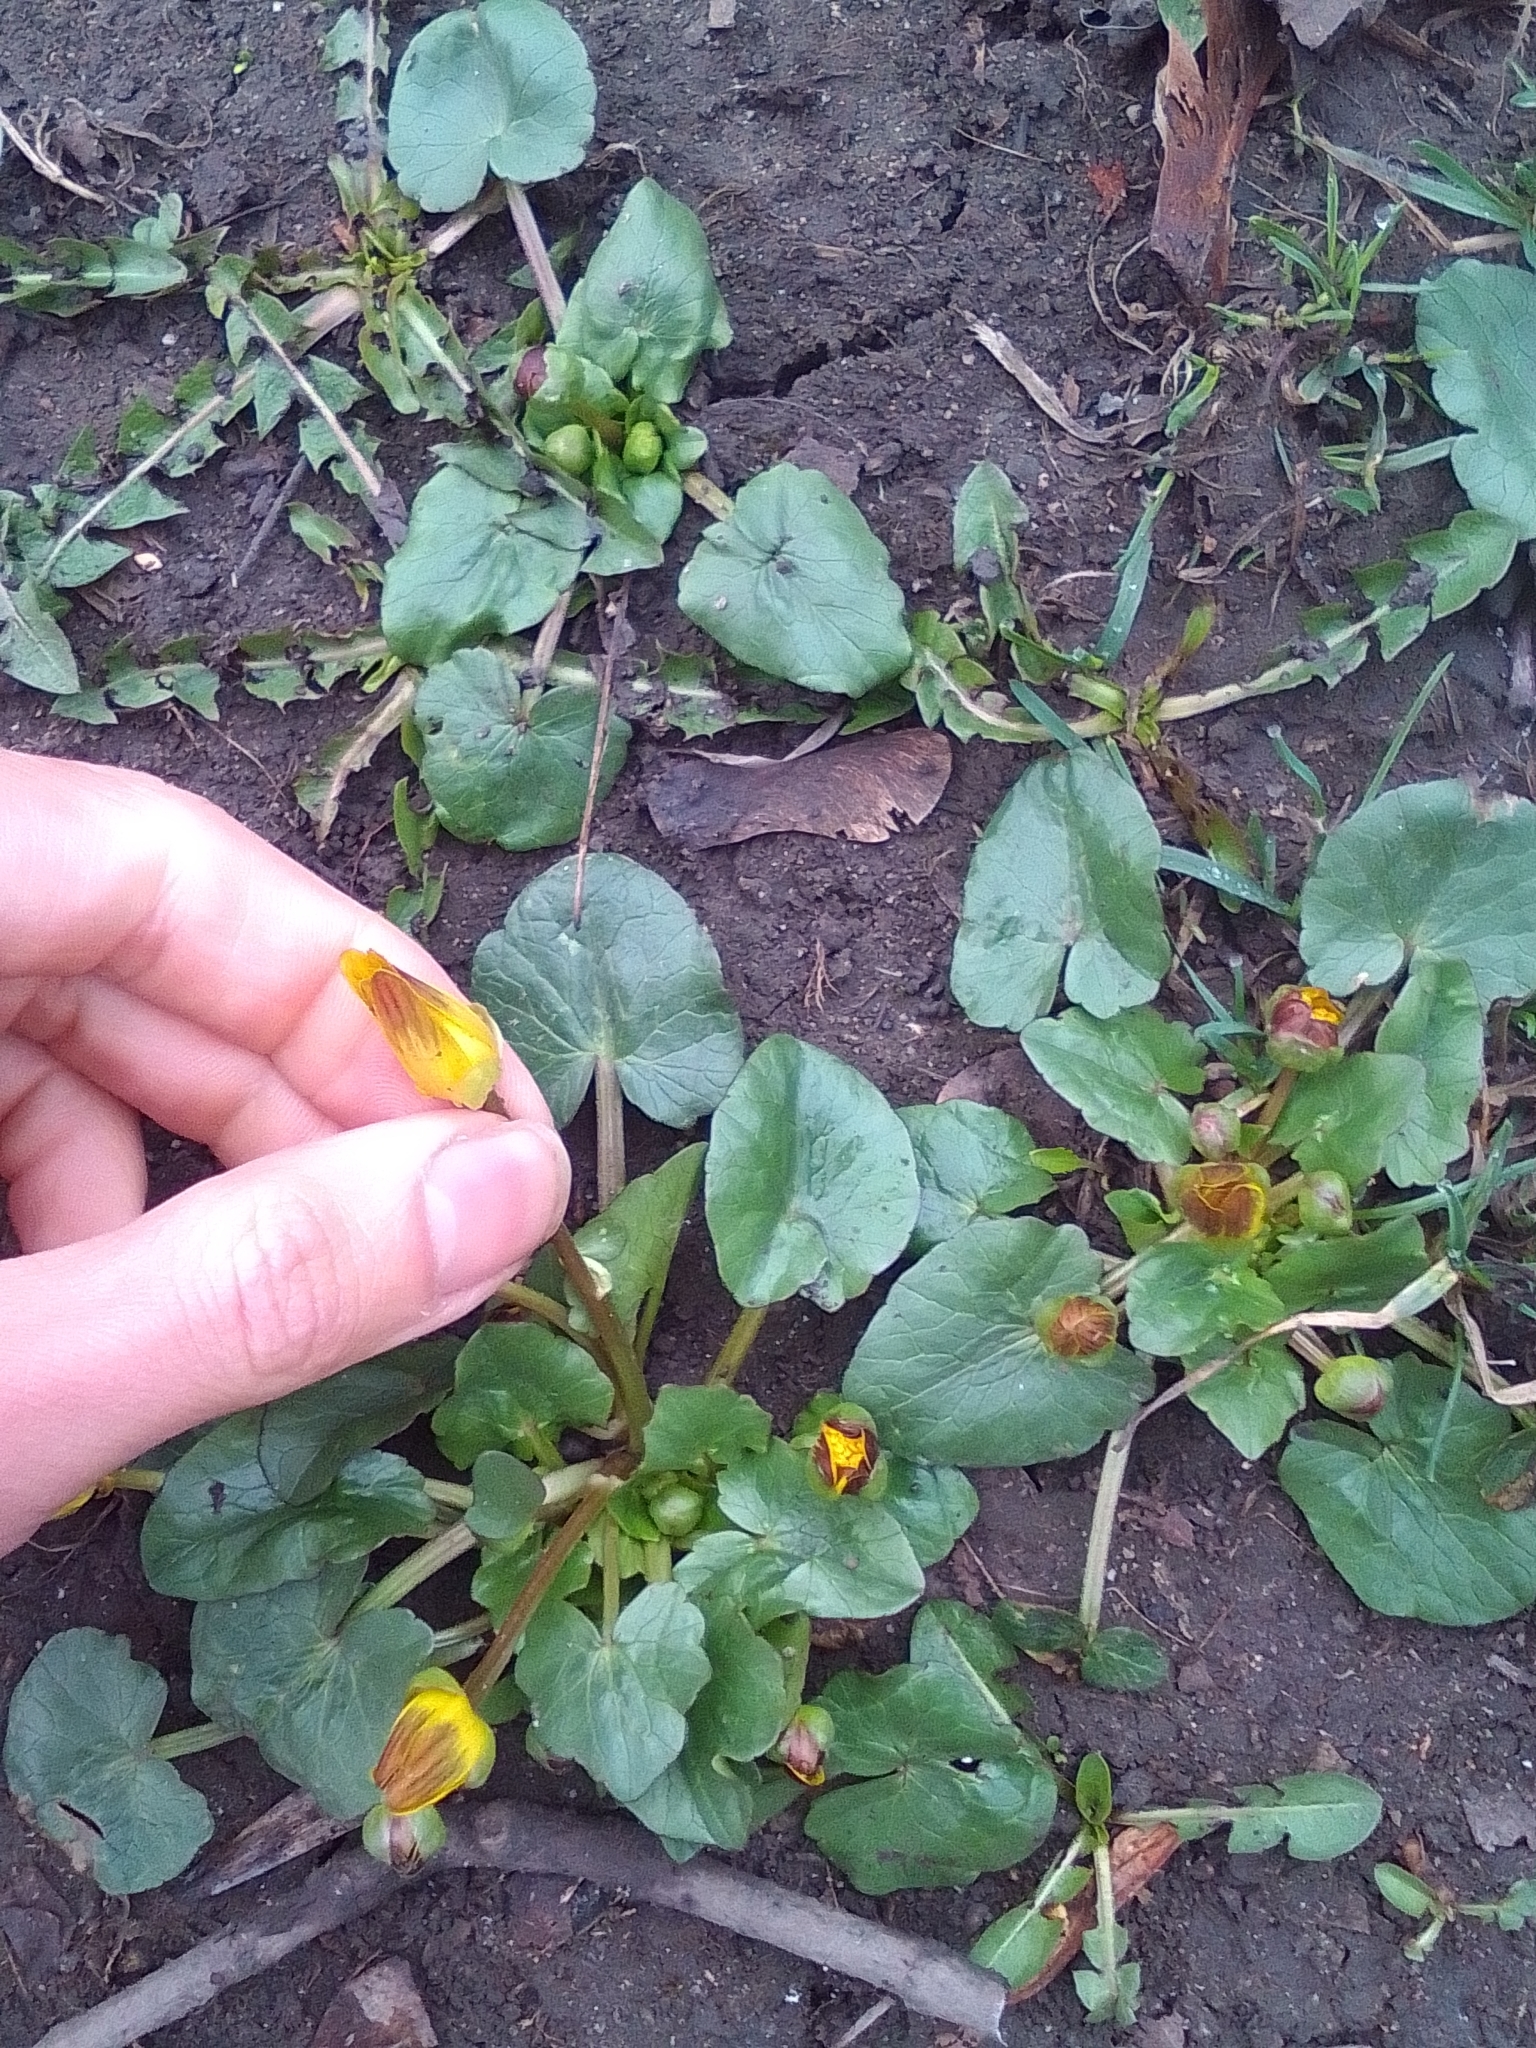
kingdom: Plantae
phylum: Tracheophyta
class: Magnoliopsida
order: Ranunculales
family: Ranunculaceae
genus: Ficaria
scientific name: Ficaria verna
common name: Lesser celandine
